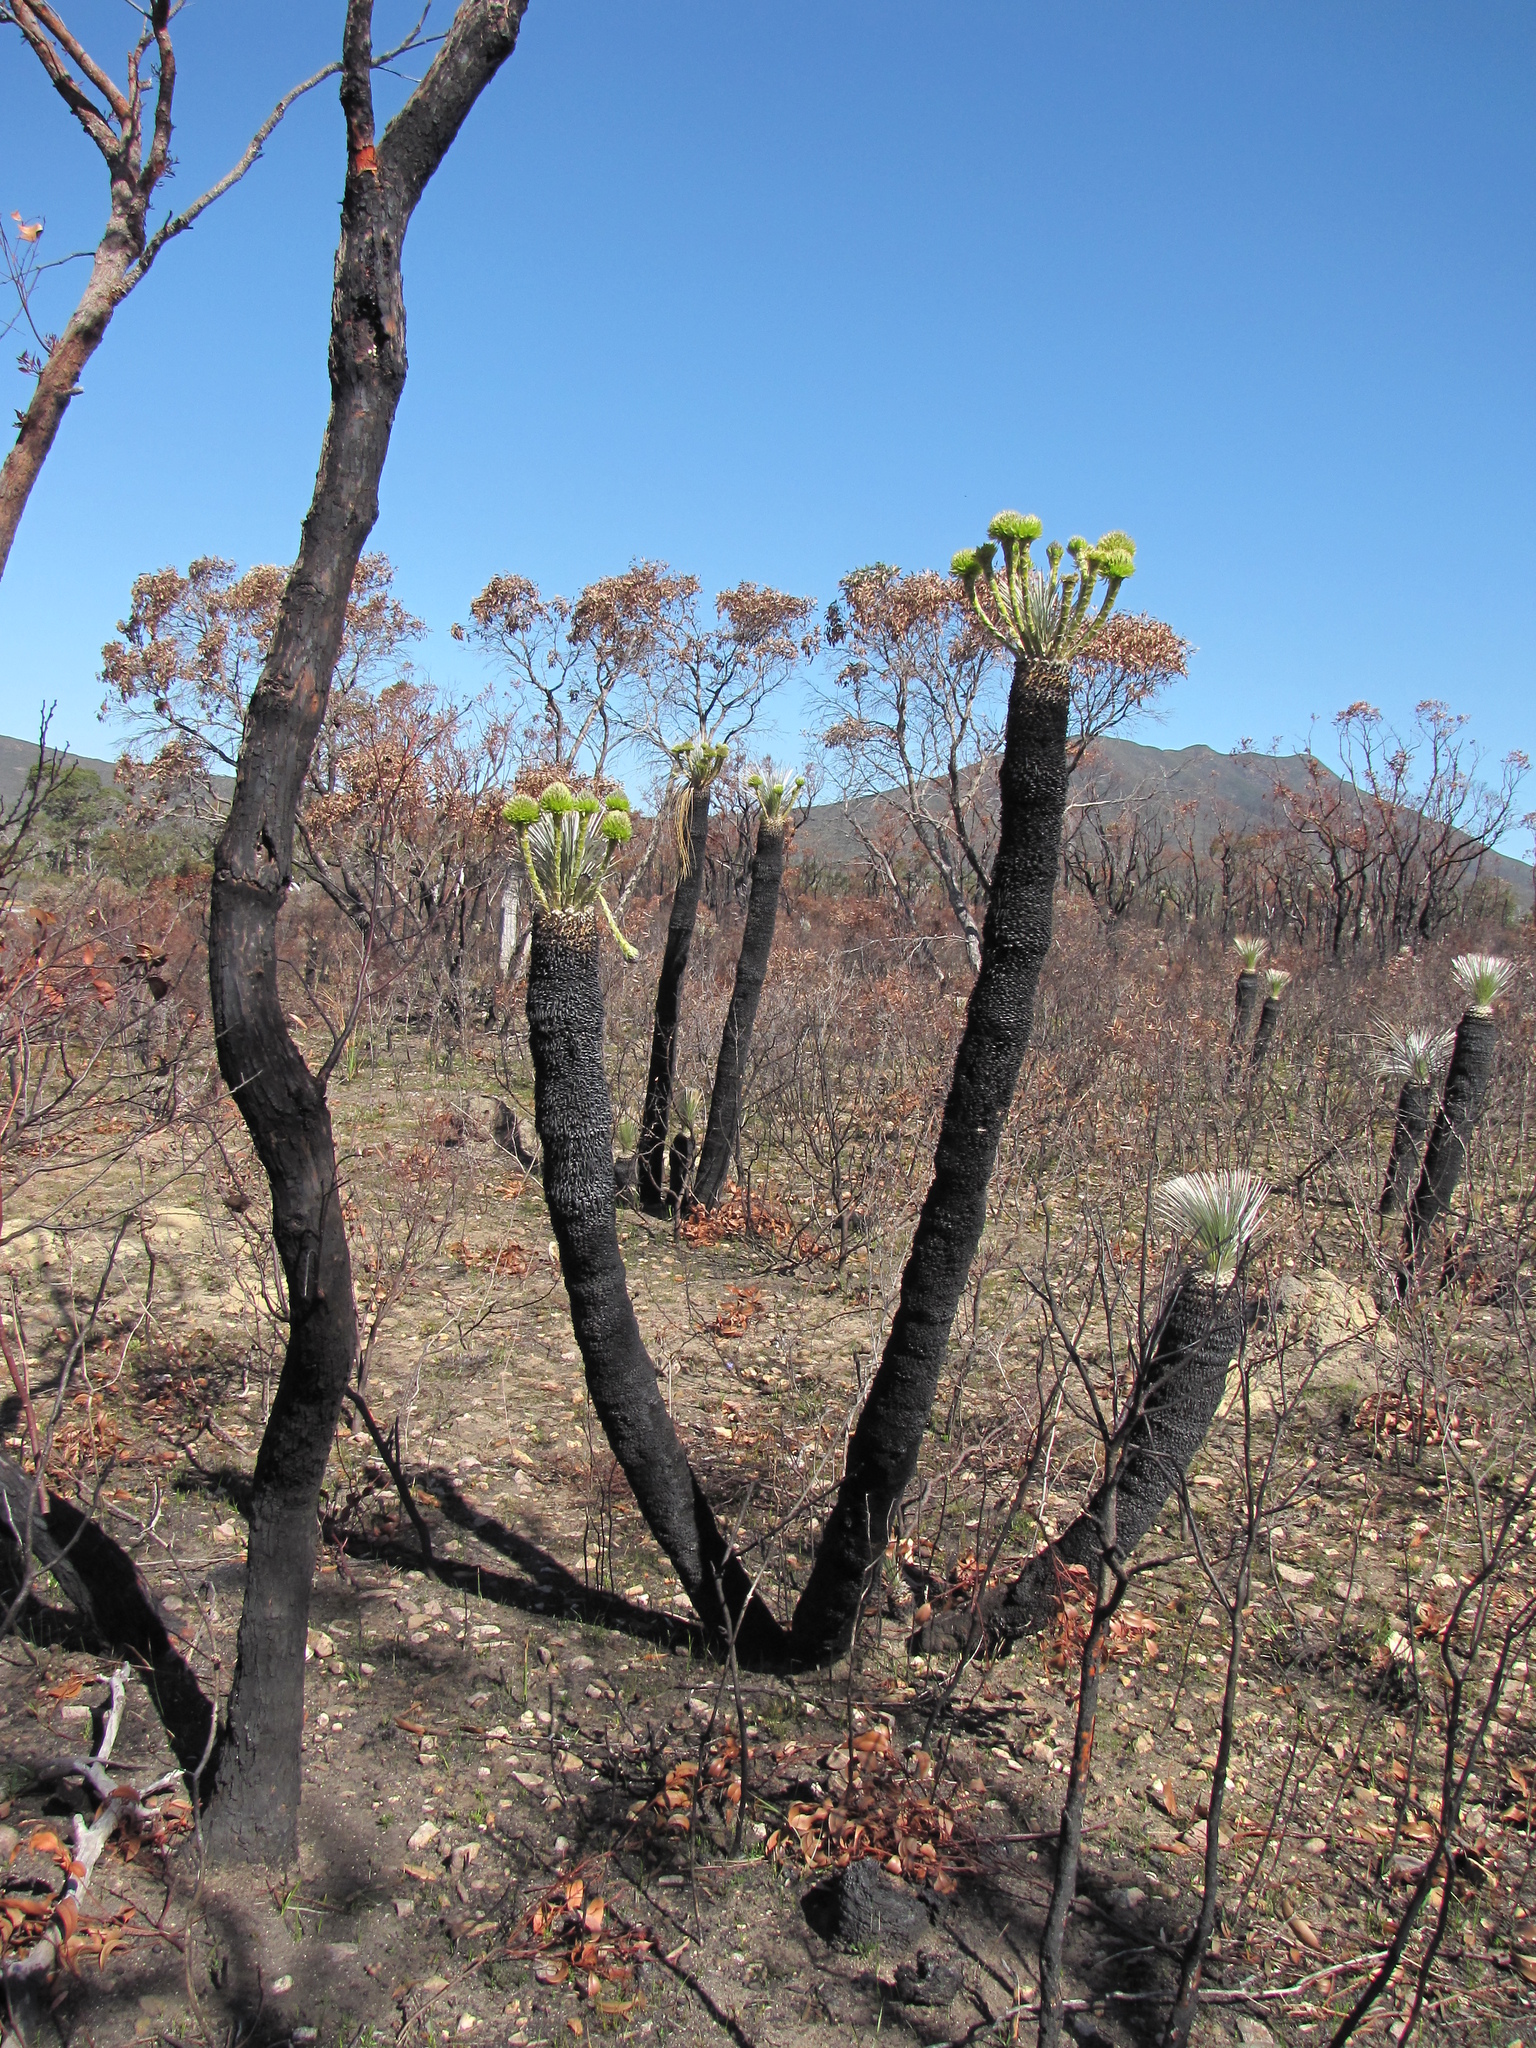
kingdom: Plantae
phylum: Tracheophyta
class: Liliopsida
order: Arecales
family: Dasypogonaceae
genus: Kingia
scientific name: Kingia australis
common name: Black gin
